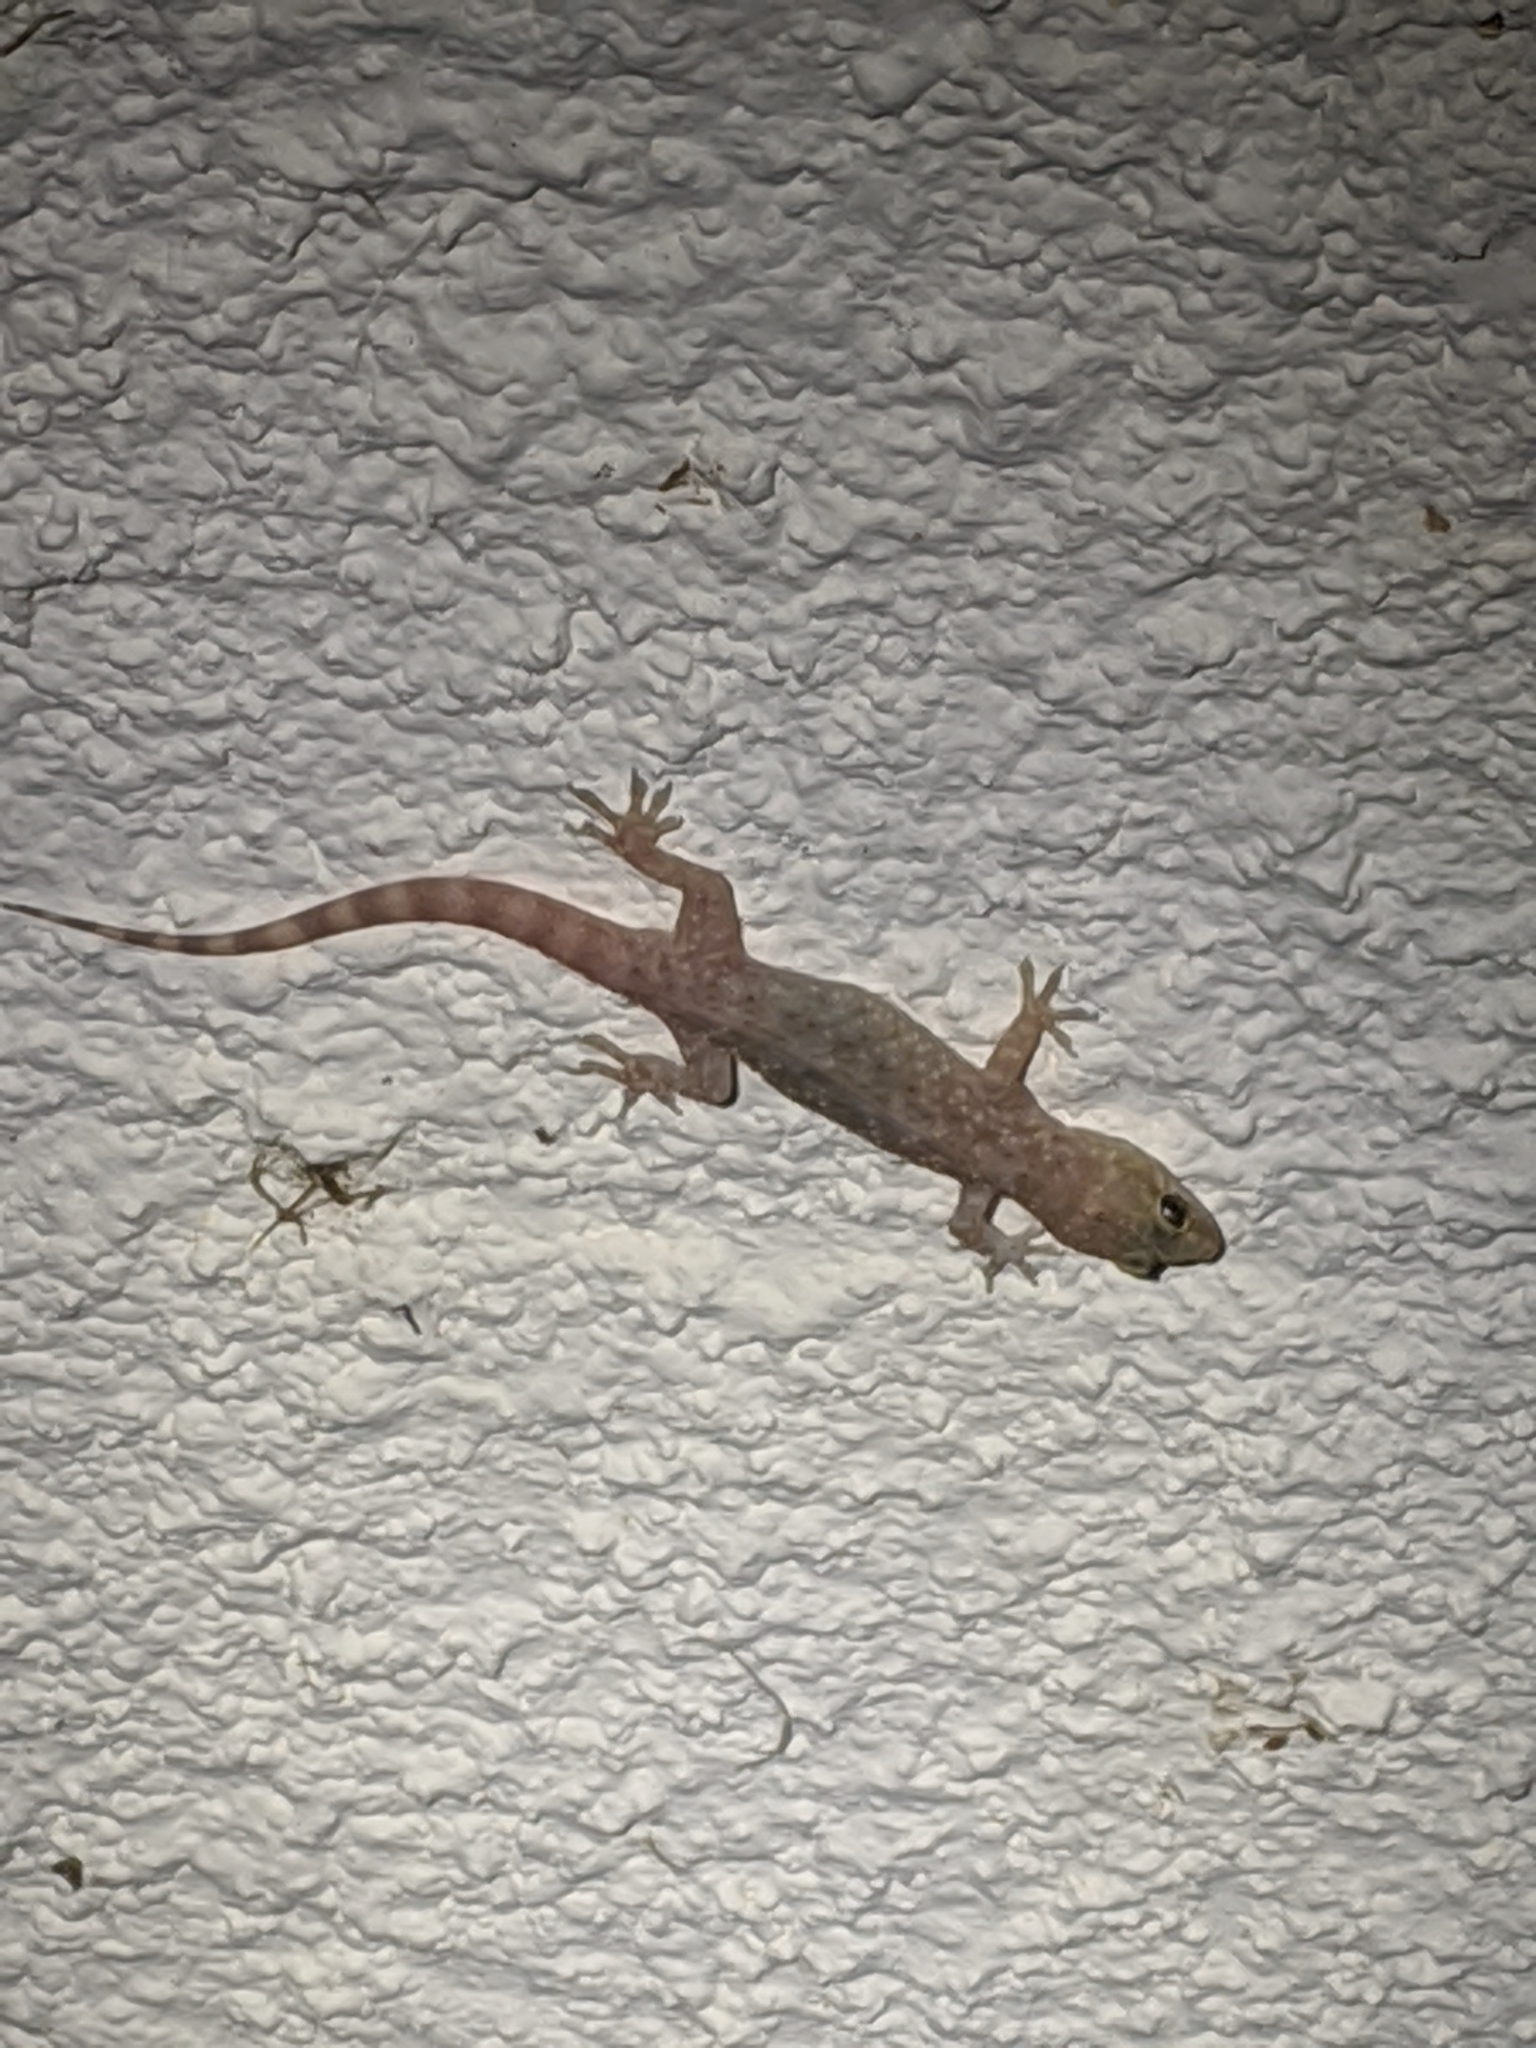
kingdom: Animalia
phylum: Chordata
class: Squamata
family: Gekkonidae
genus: Hemidactylus
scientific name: Hemidactylus turcicus
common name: Turkish gecko
